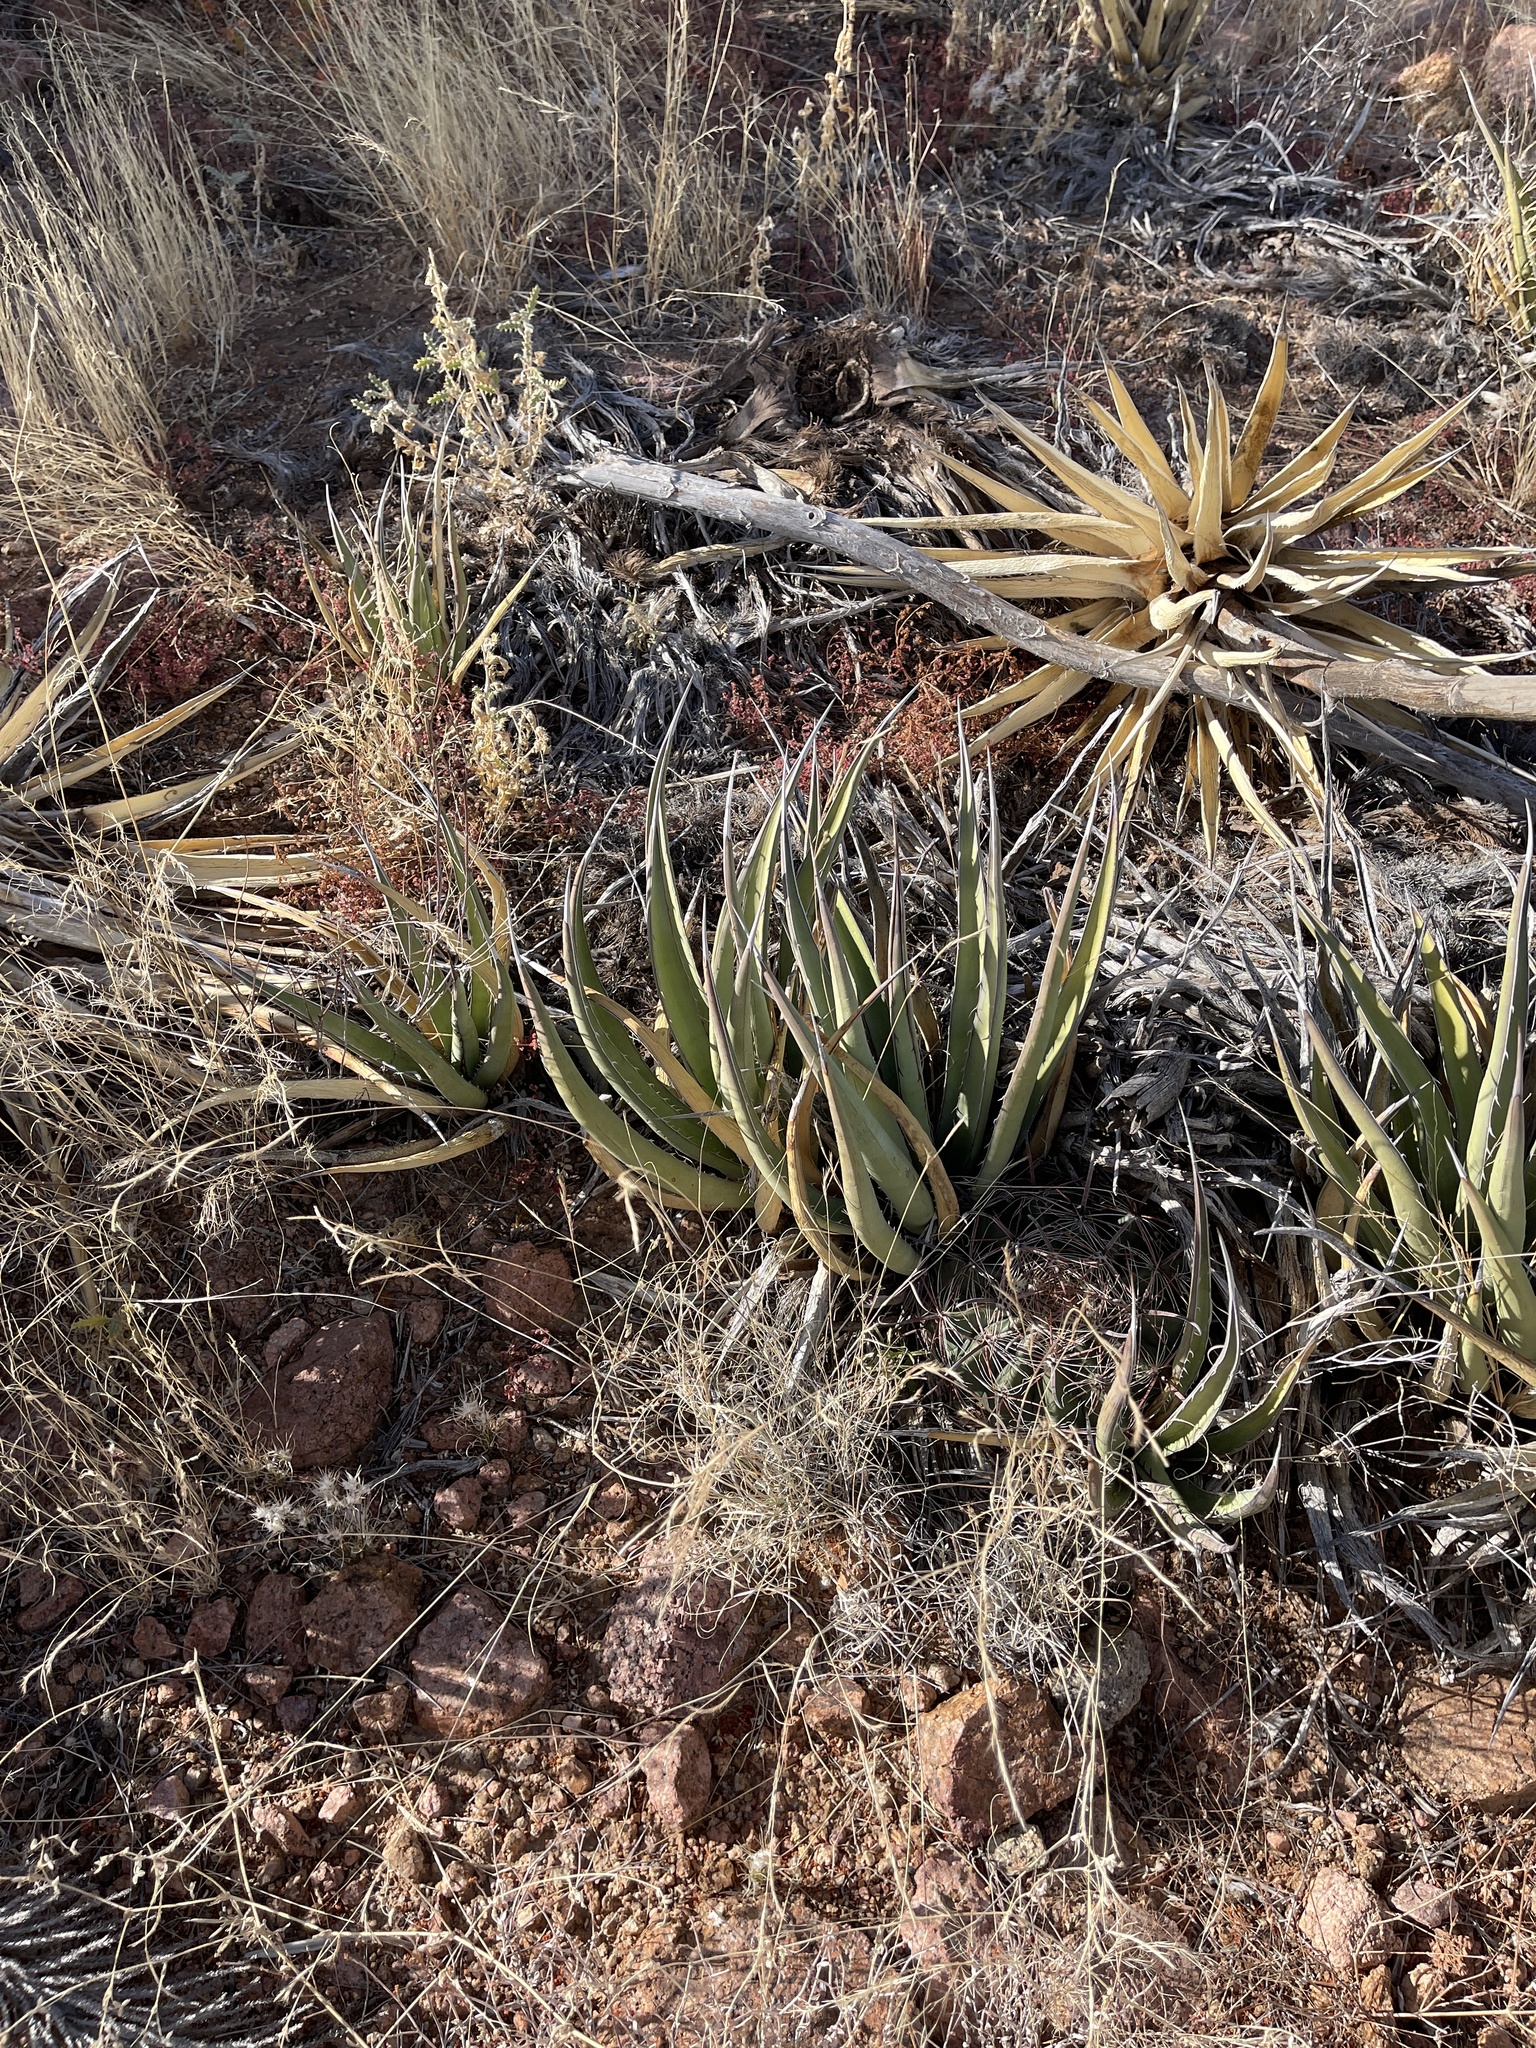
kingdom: Plantae
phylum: Tracheophyta
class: Liliopsida
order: Asparagales
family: Asparagaceae
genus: Agave
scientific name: Agave lechuguilla
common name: Lecheguilla agave
